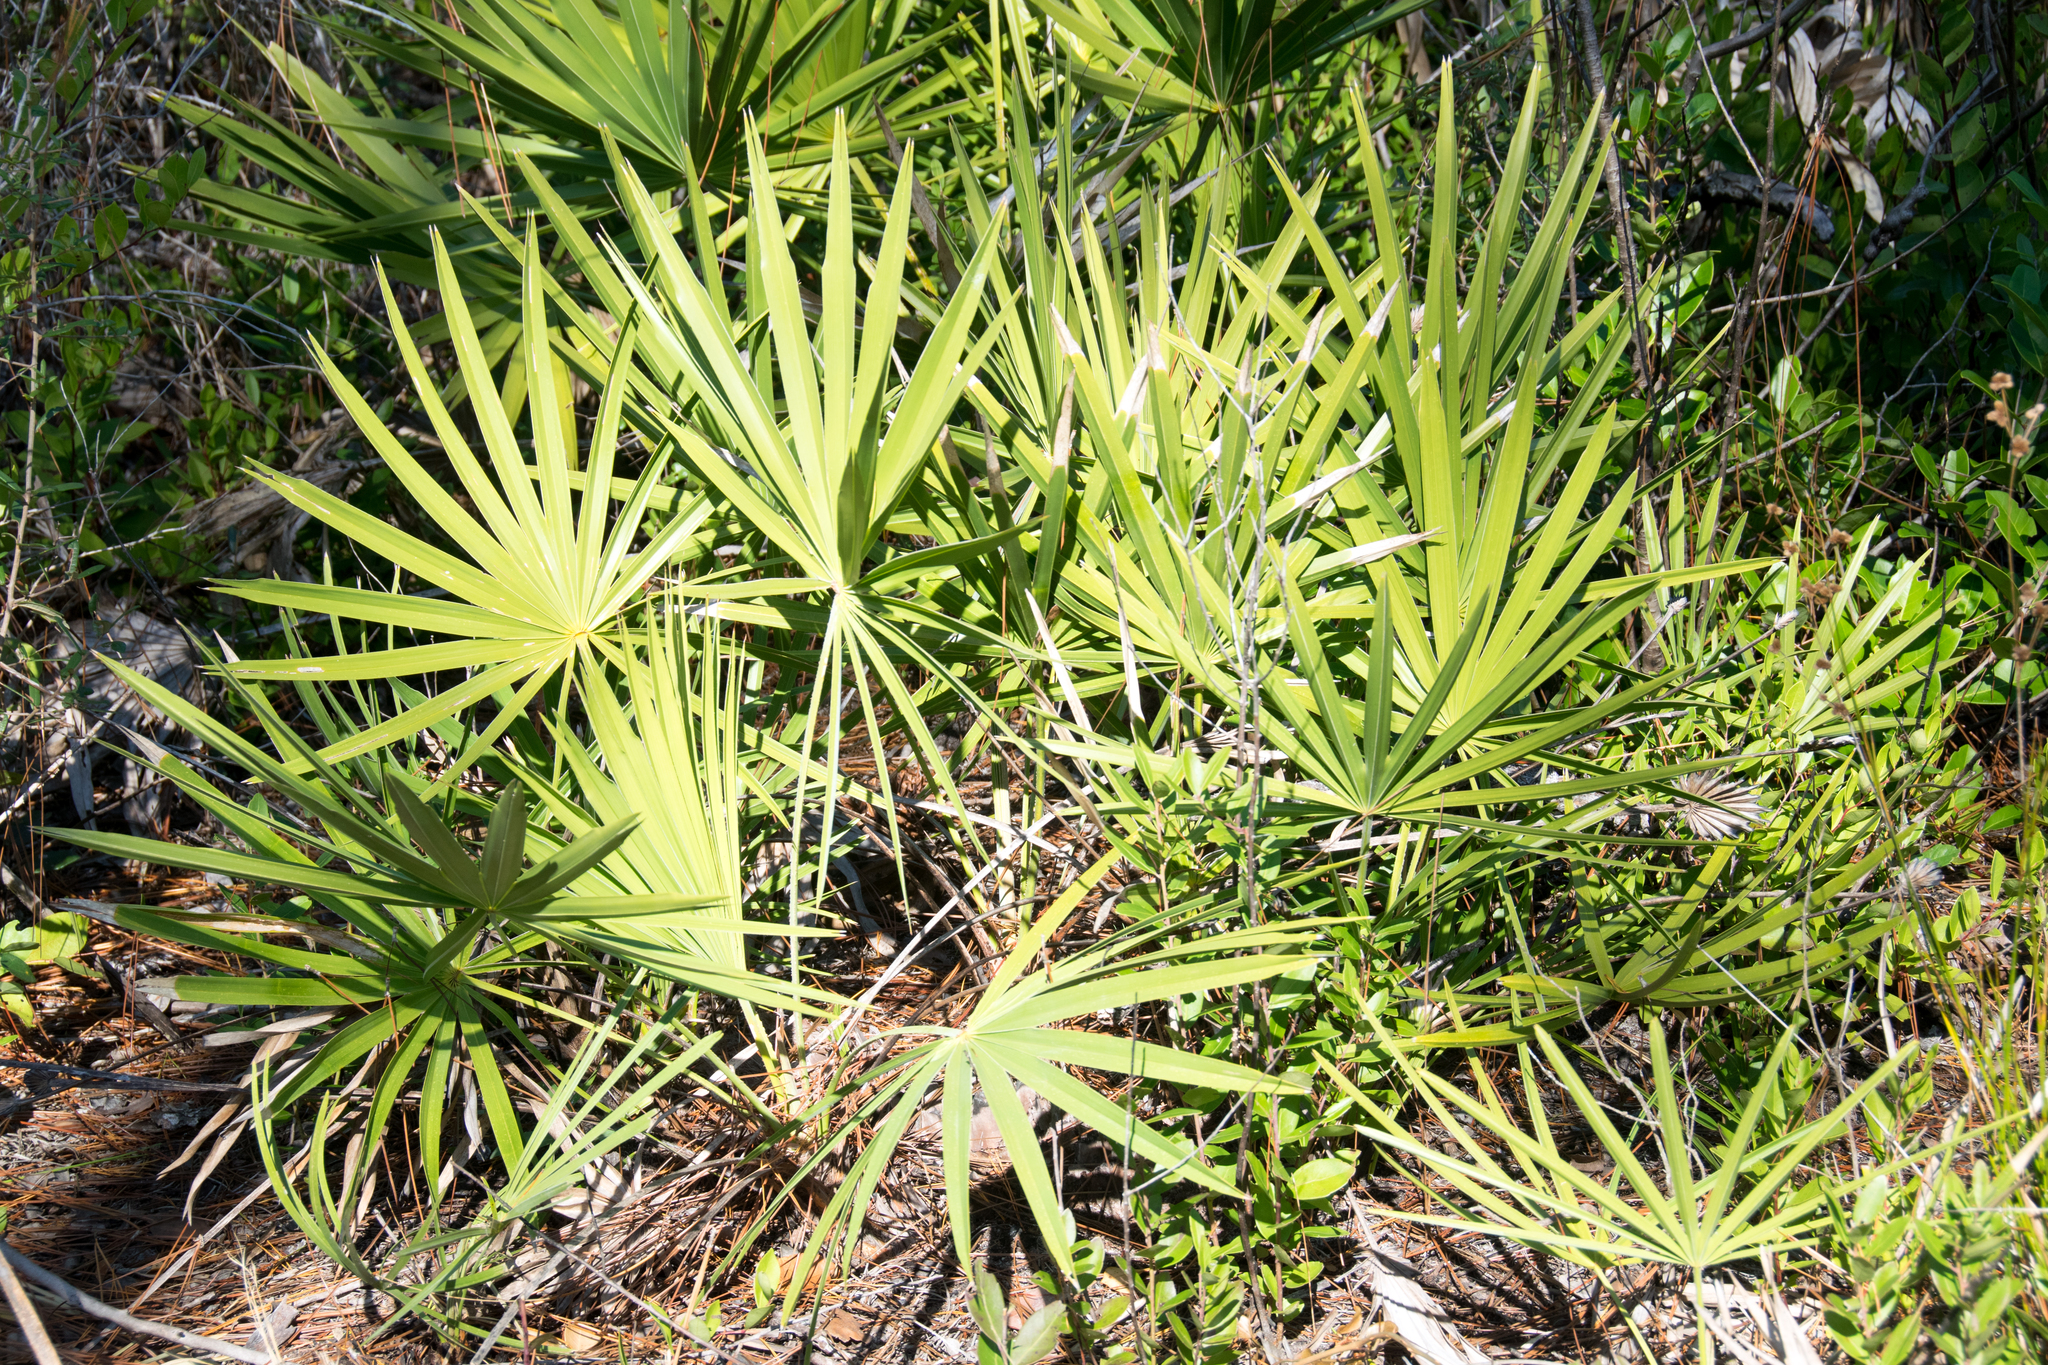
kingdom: Plantae
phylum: Tracheophyta
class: Liliopsida
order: Arecales
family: Arecaceae
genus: Serenoa
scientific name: Serenoa repens
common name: Saw-palmetto
